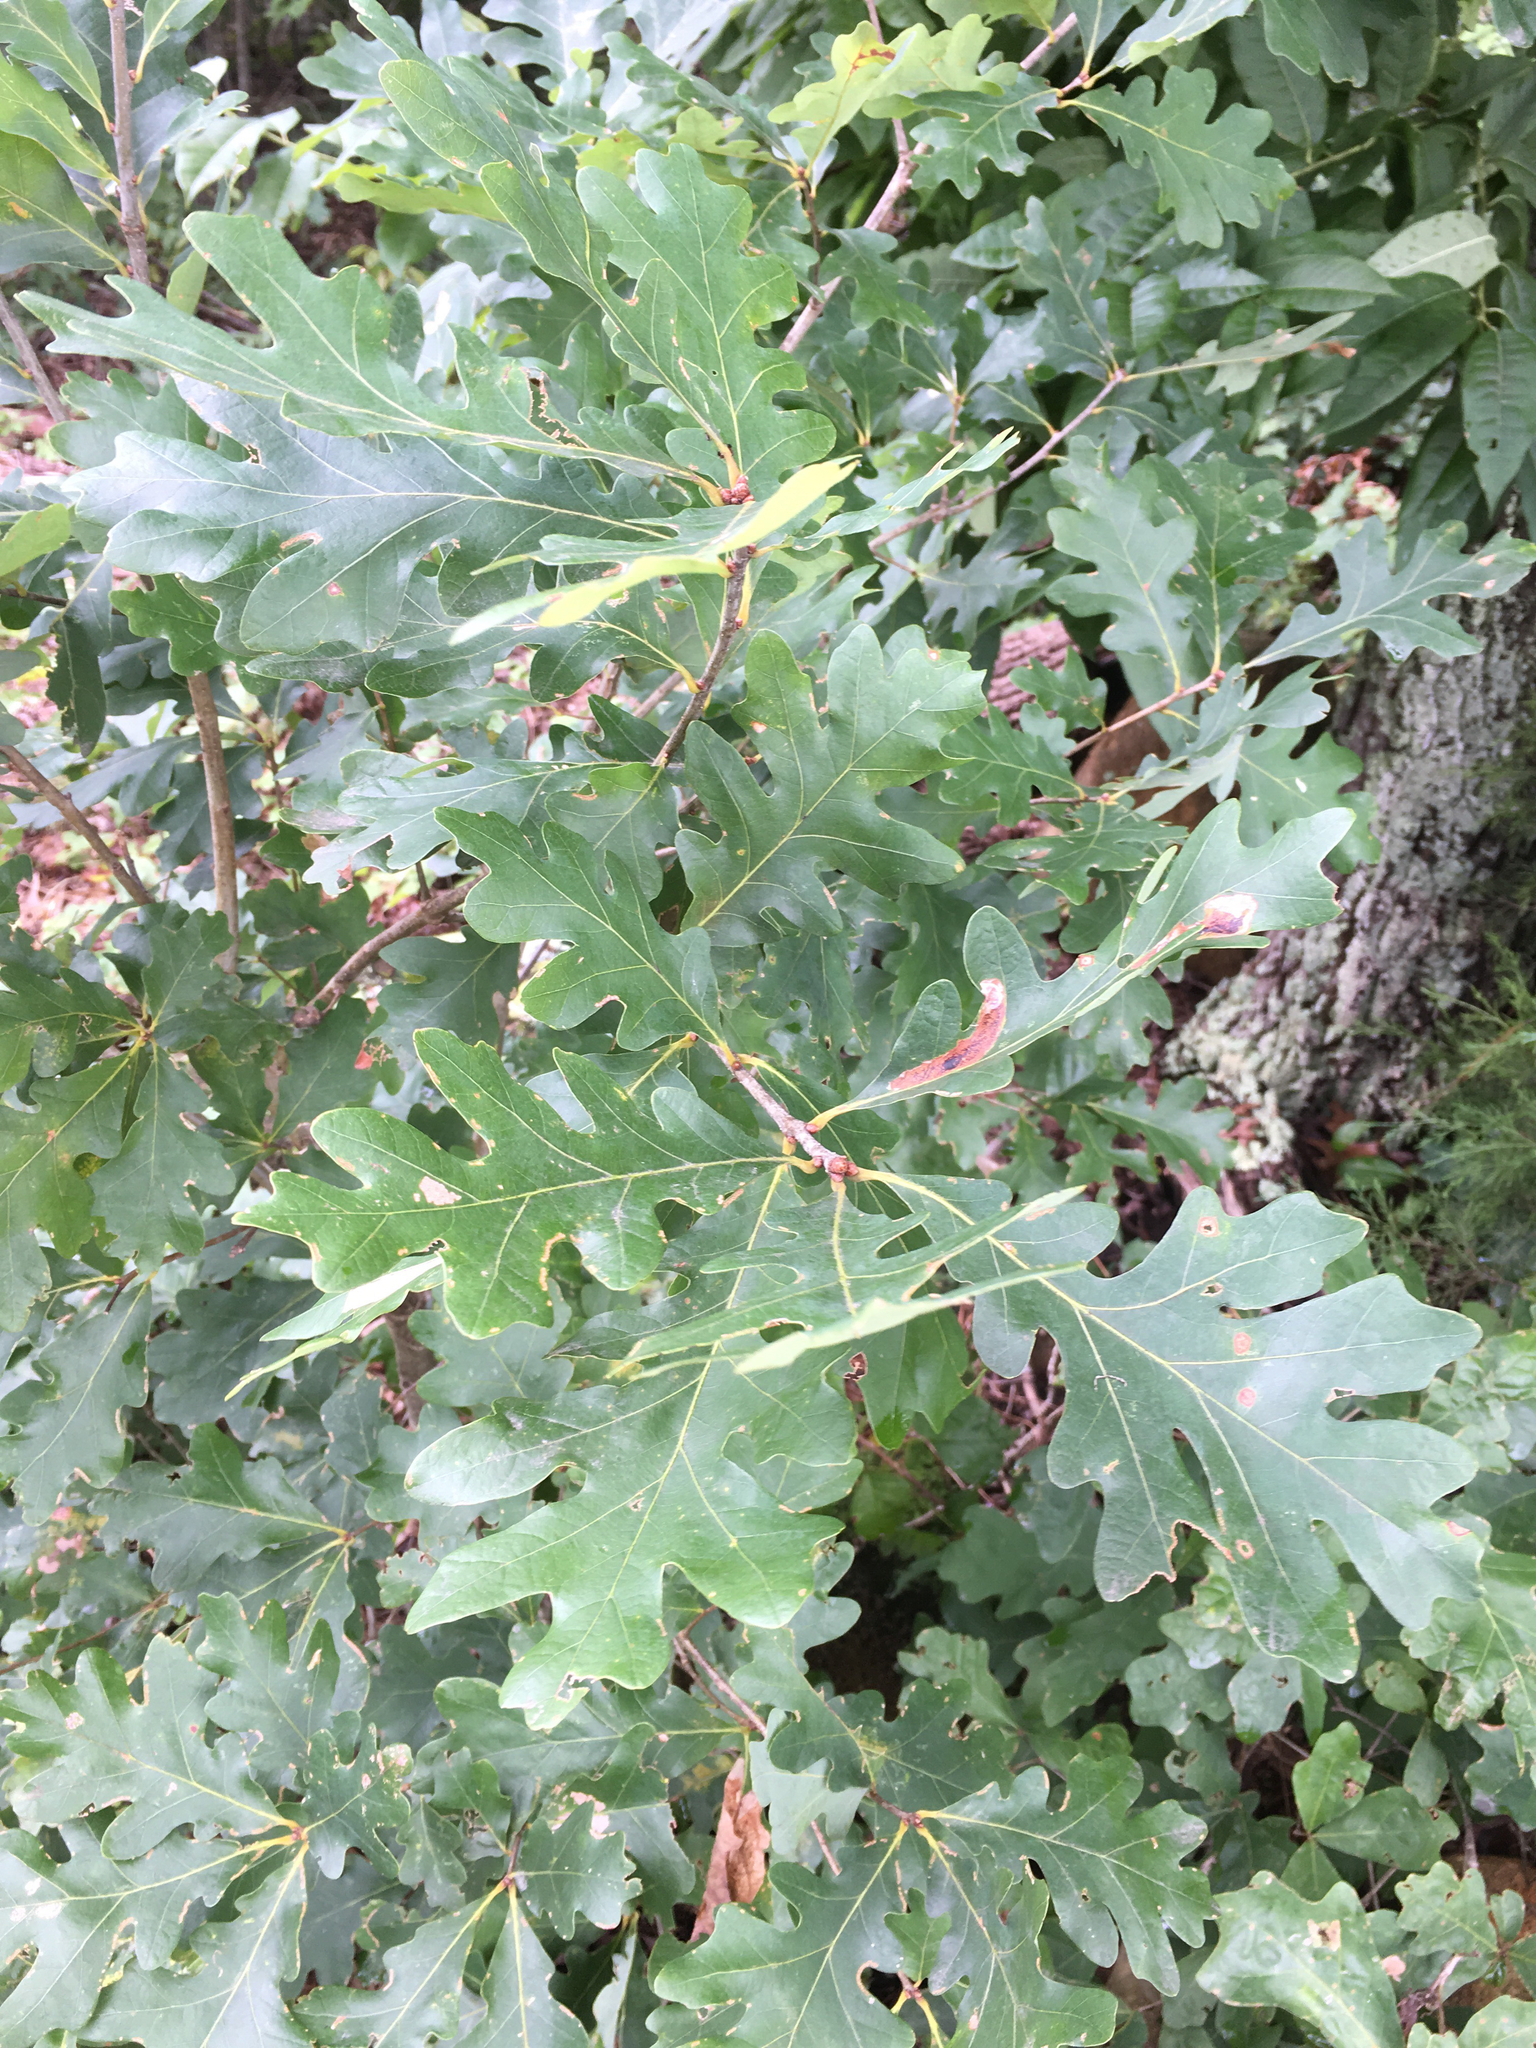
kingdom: Plantae
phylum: Tracheophyta
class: Magnoliopsida
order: Fagales
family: Fagaceae
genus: Quercus
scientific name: Quercus alba
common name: White oak
